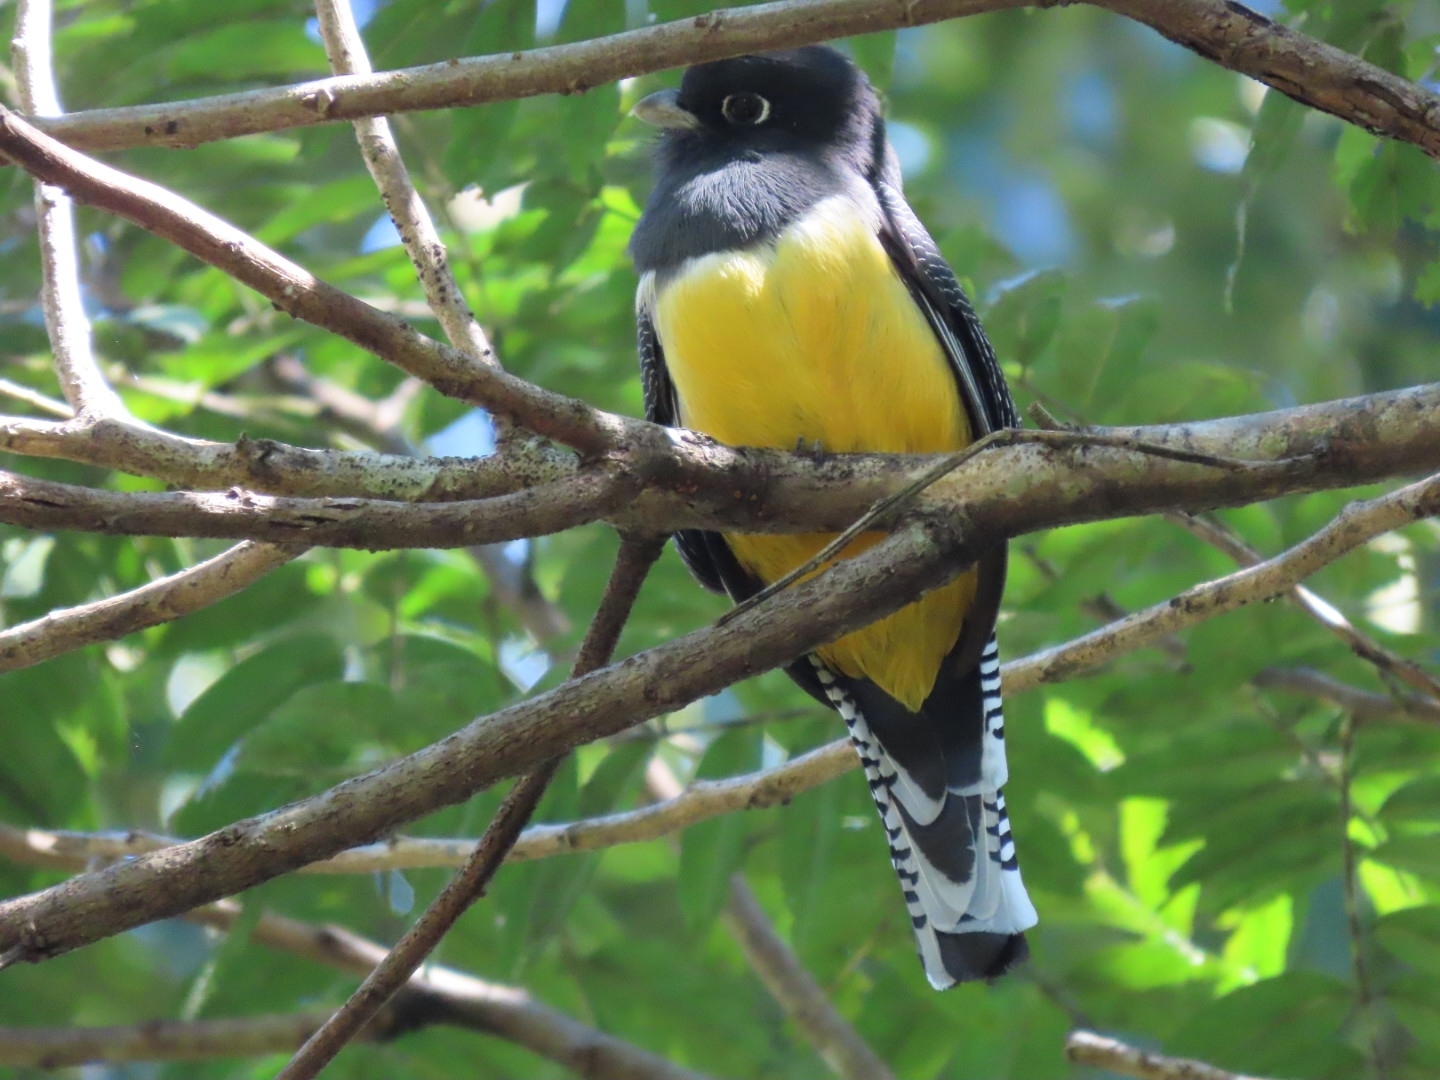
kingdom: Animalia
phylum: Chordata
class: Aves
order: Trogoniformes
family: Trogonidae
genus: Trogon
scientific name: Trogon caligatus
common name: Gartered trogon
